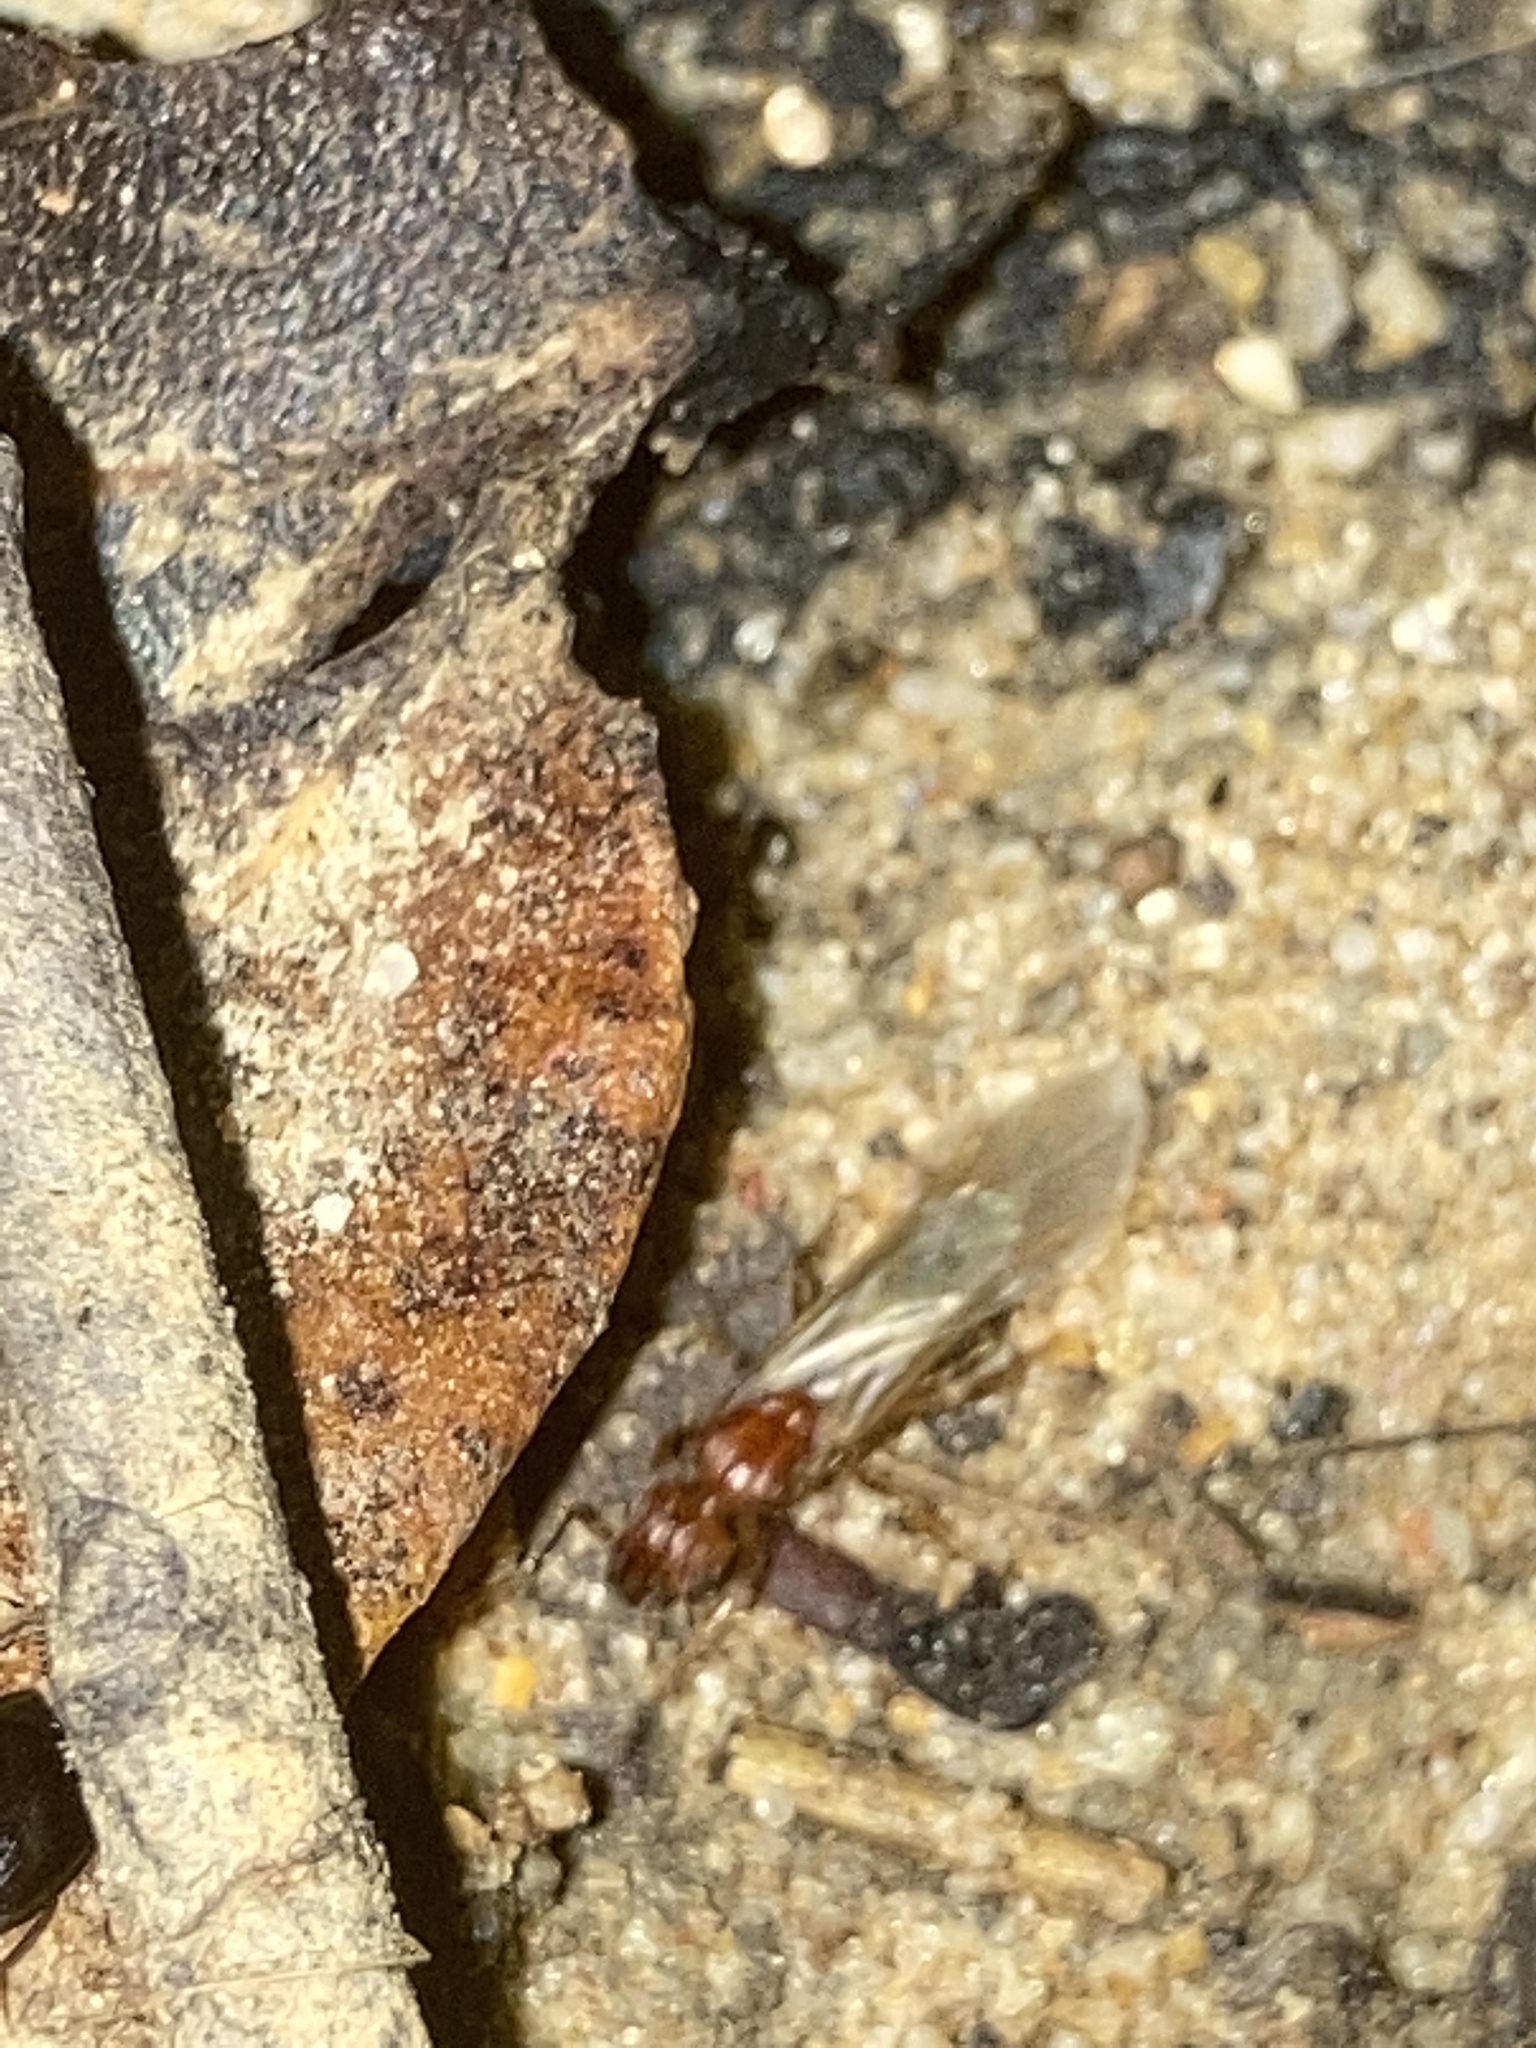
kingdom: Animalia
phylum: Arthropoda
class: Insecta
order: Hymenoptera
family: Formicidae
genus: Pheidole
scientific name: Pheidole dentata
